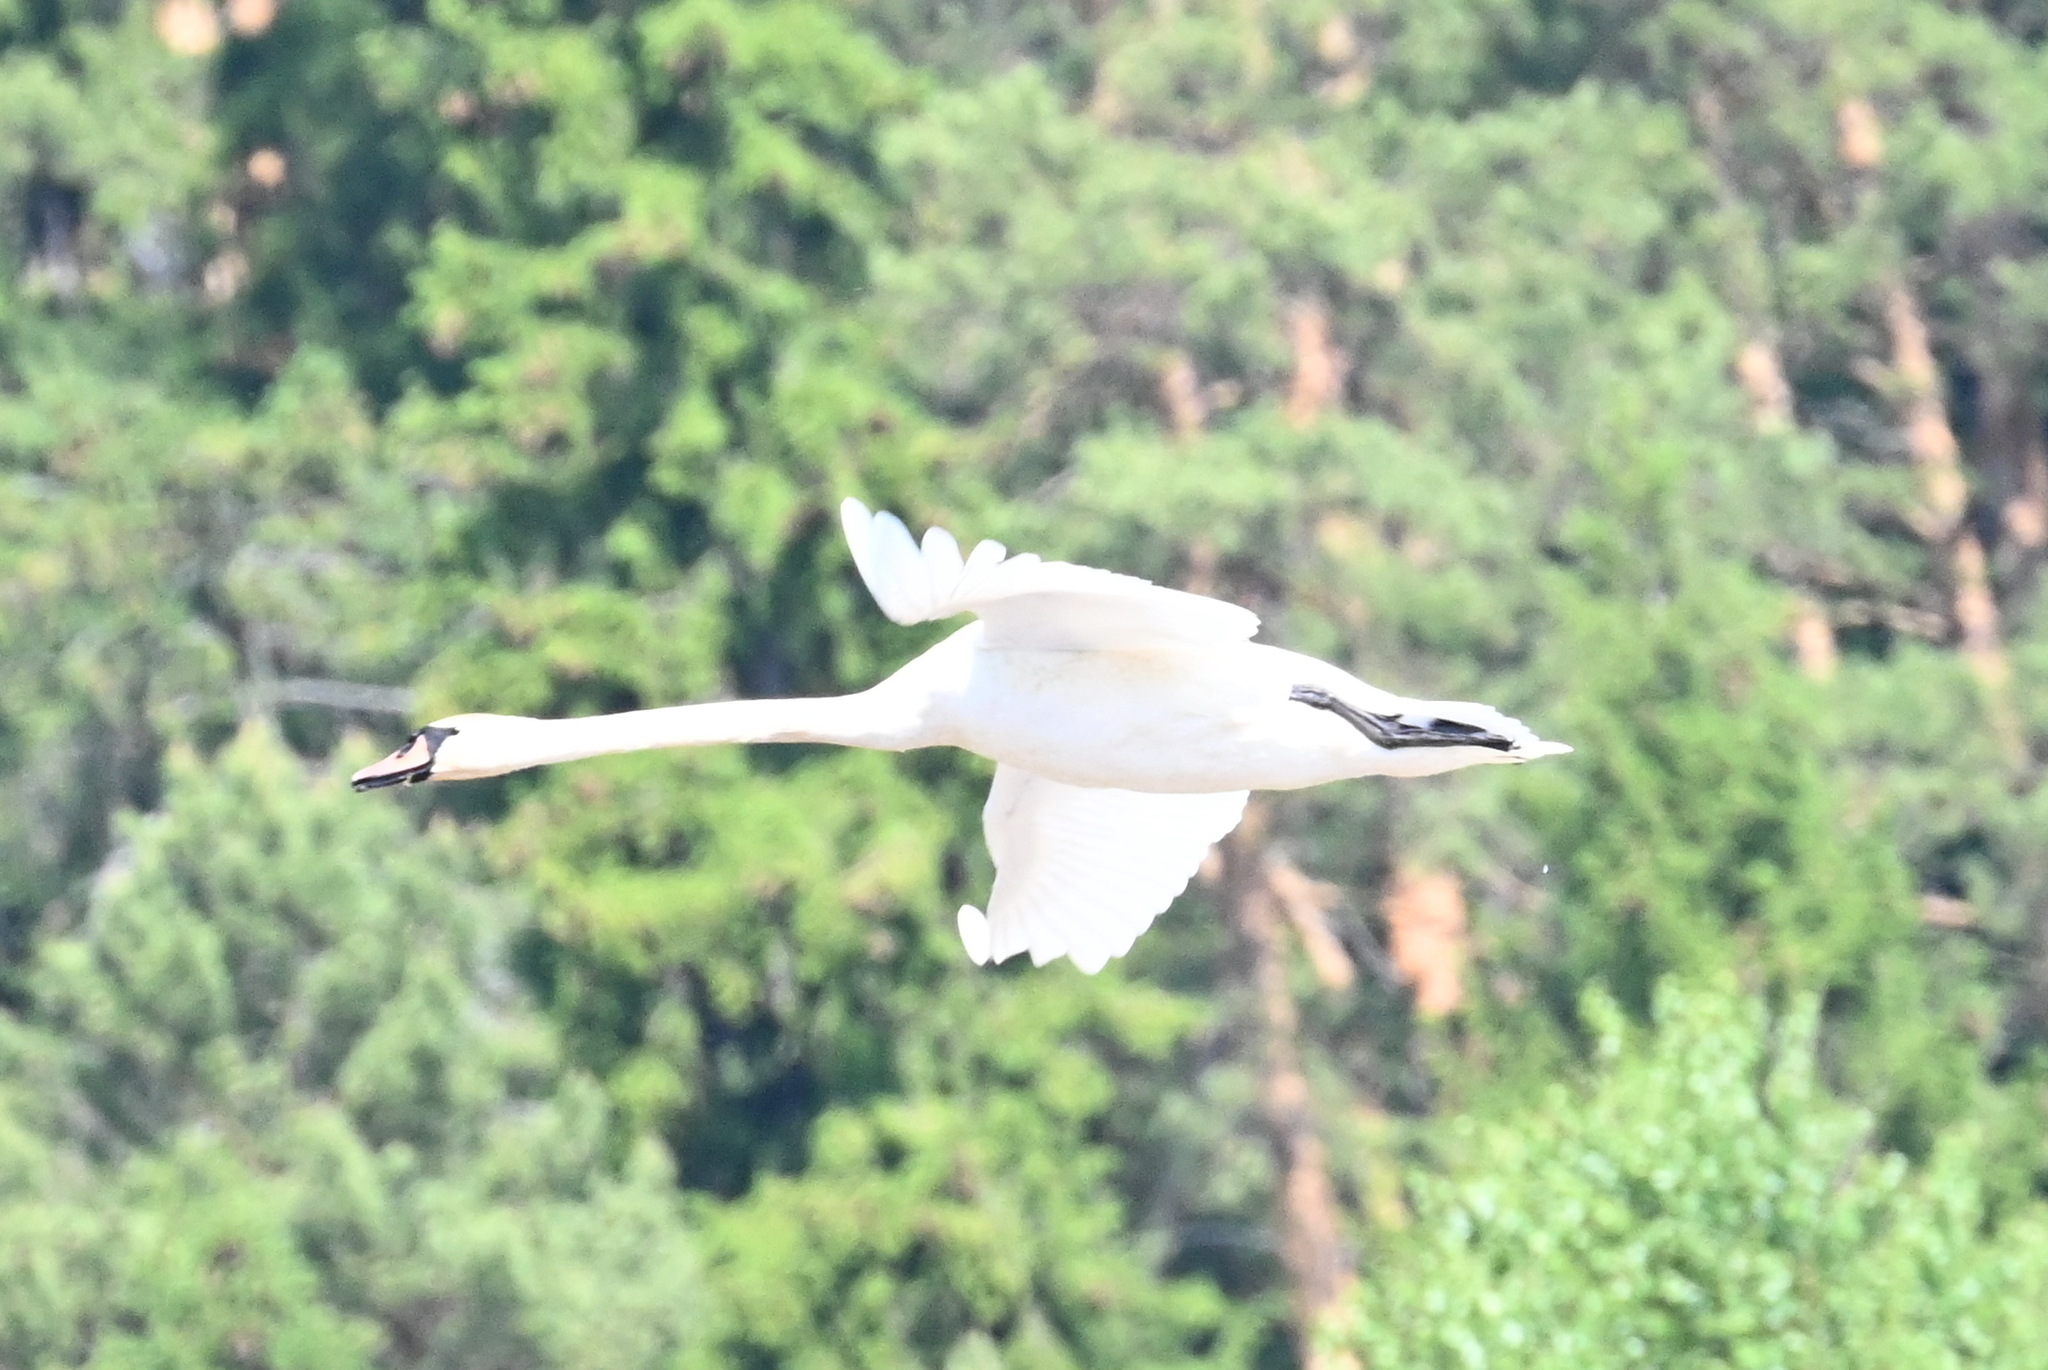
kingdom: Animalia
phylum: Chordata
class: Aves
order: Anseriformes
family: Anatidae
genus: Cygnus
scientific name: Cygnus olor
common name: Mute swan
